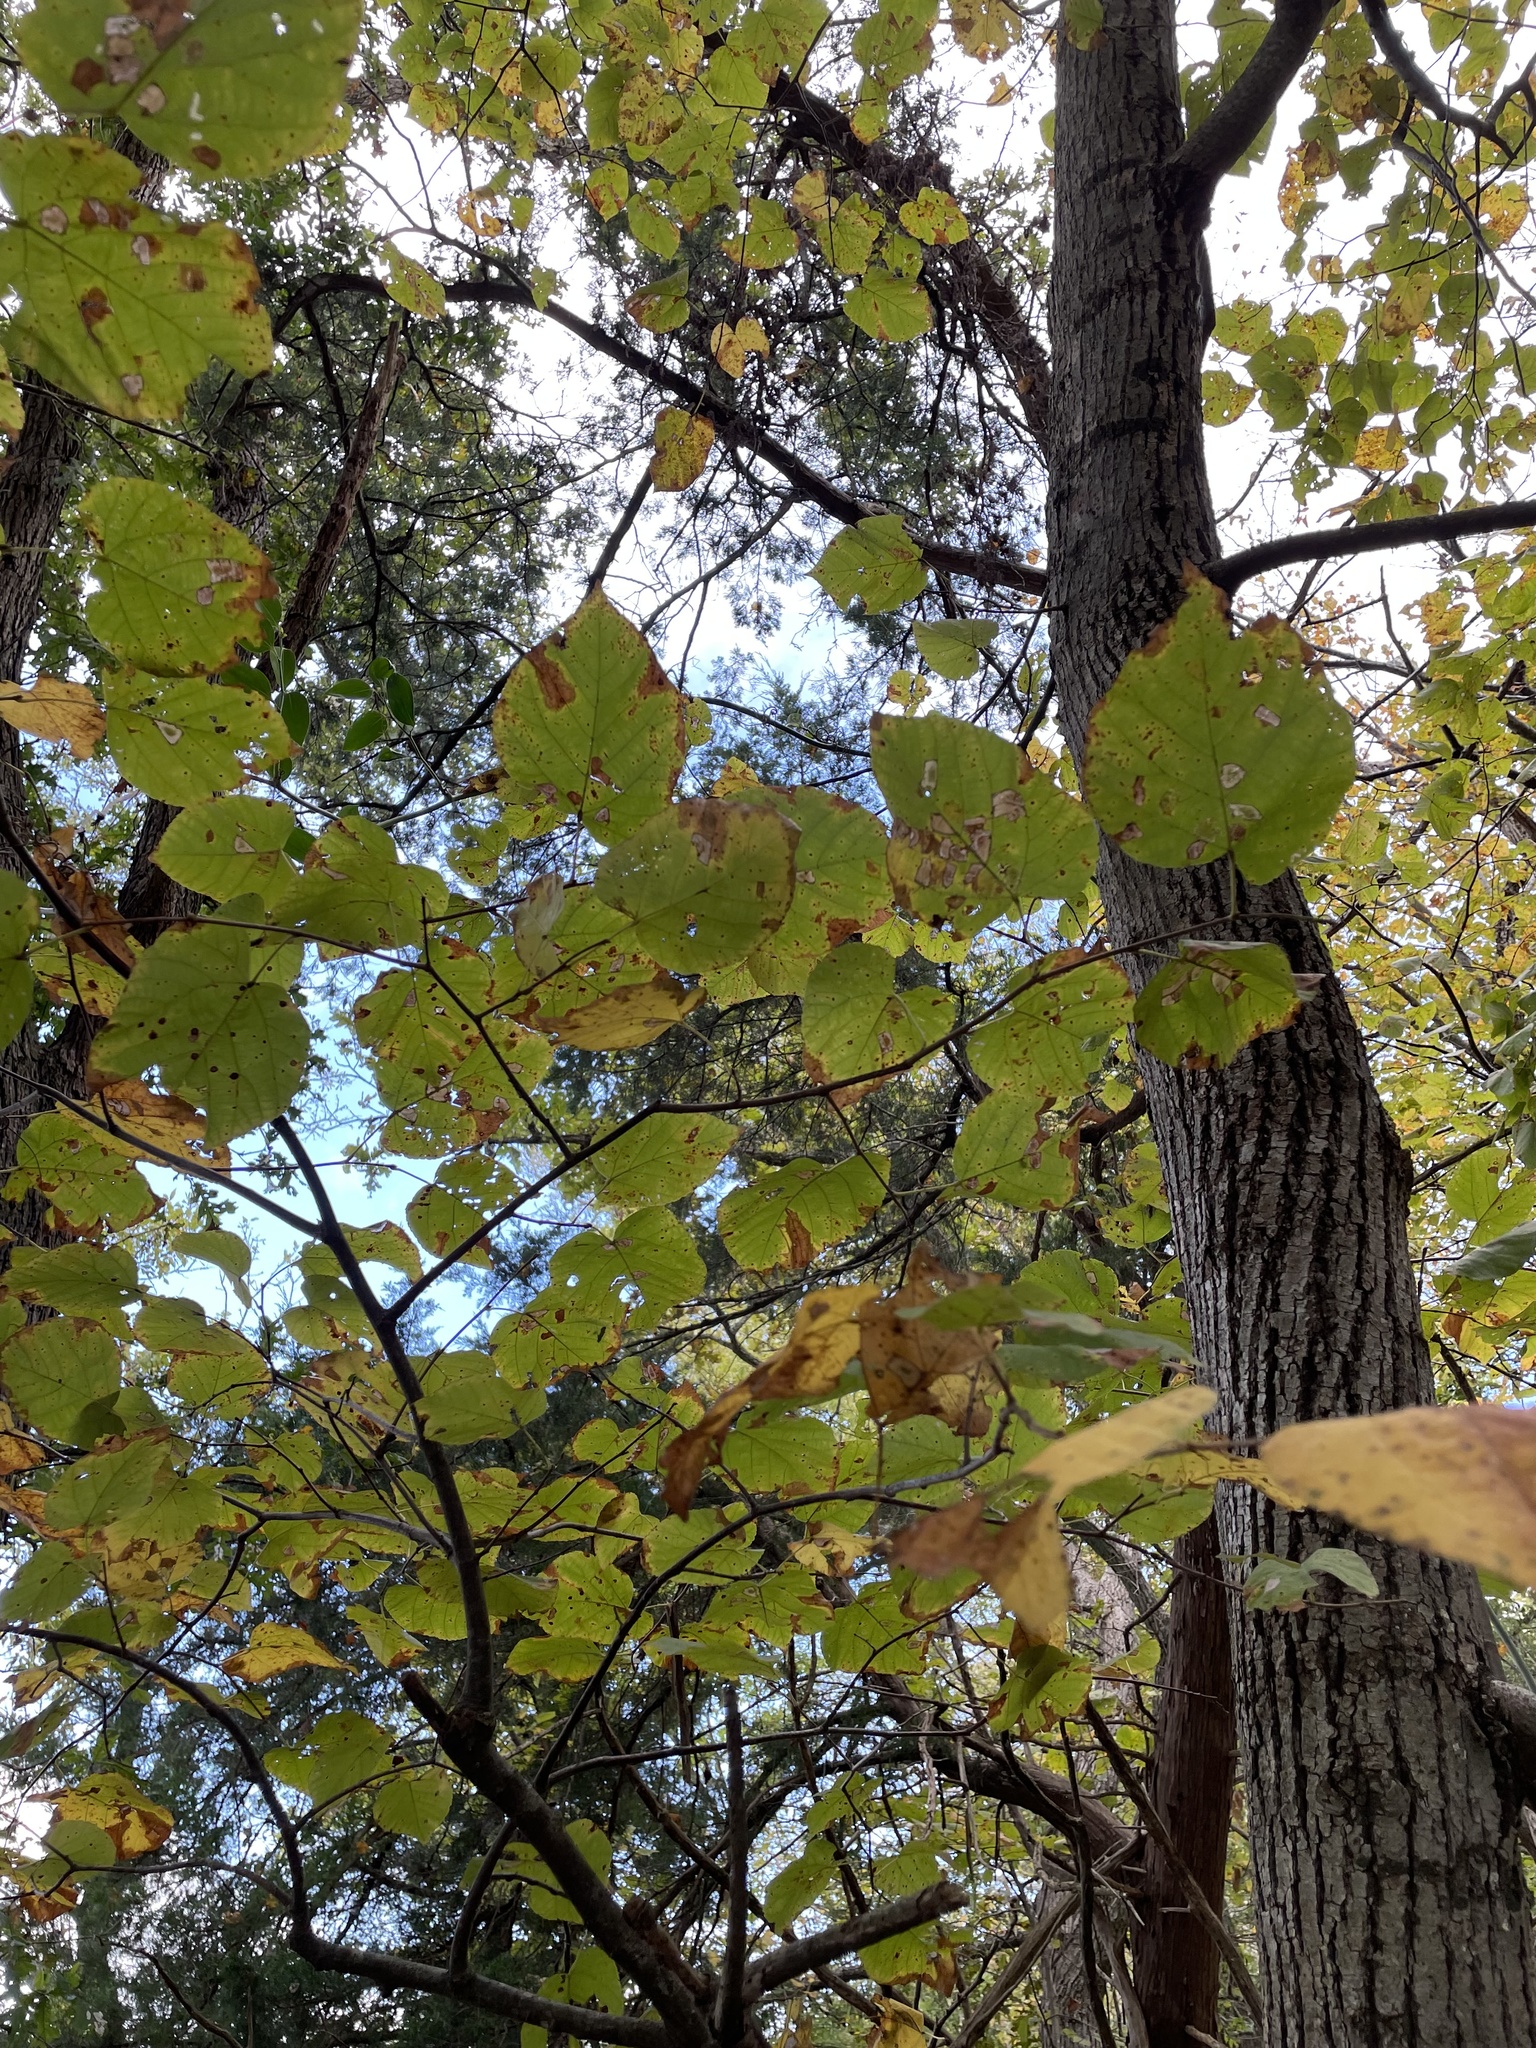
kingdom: Plantae
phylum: Tracheophyta
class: Magnoliopsida
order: Malvales
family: Malvaceae
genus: Tilia
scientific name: Tilia americana
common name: Basswood
